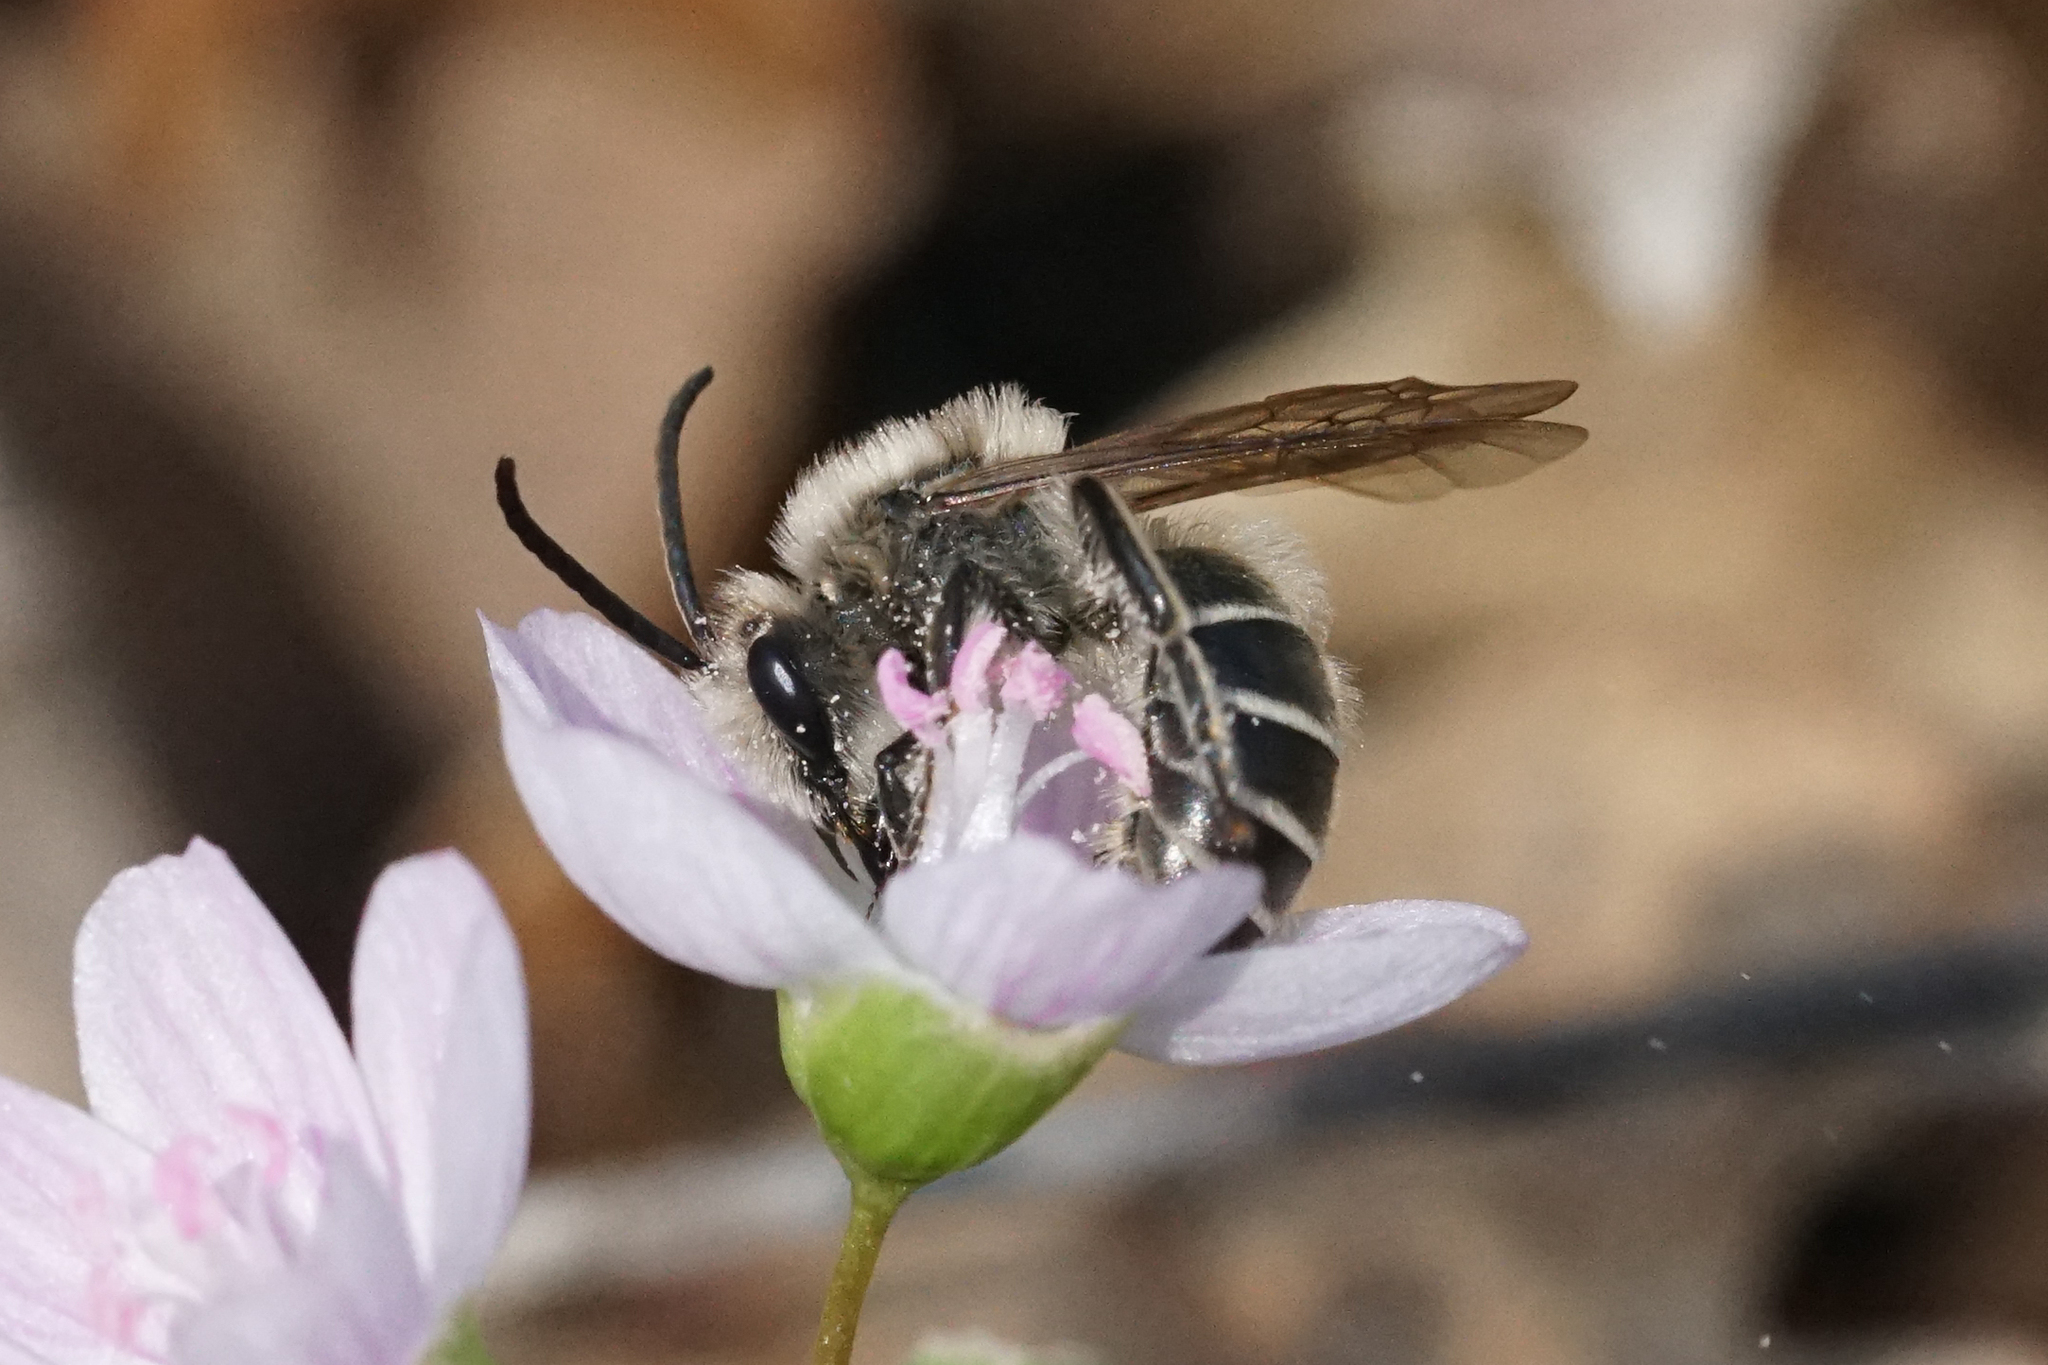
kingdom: Animalia
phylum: Arthropoda
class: Insecta
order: Hymenoptera
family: Colletidae
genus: Colletes
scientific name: Colletes inaequalis
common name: Unequal cellophane bee
